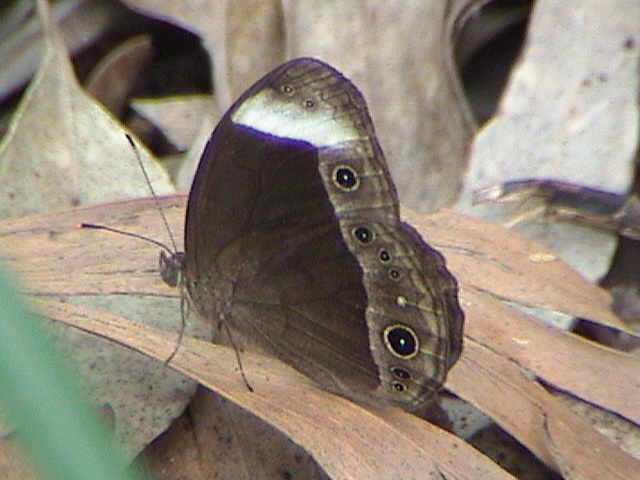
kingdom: Animalia
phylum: Arthropoda
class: Insecta
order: Lepidoptera
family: Nymphalidae
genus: Mycalesis
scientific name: Mycalesis anaxias
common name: White-bar bushbrown
